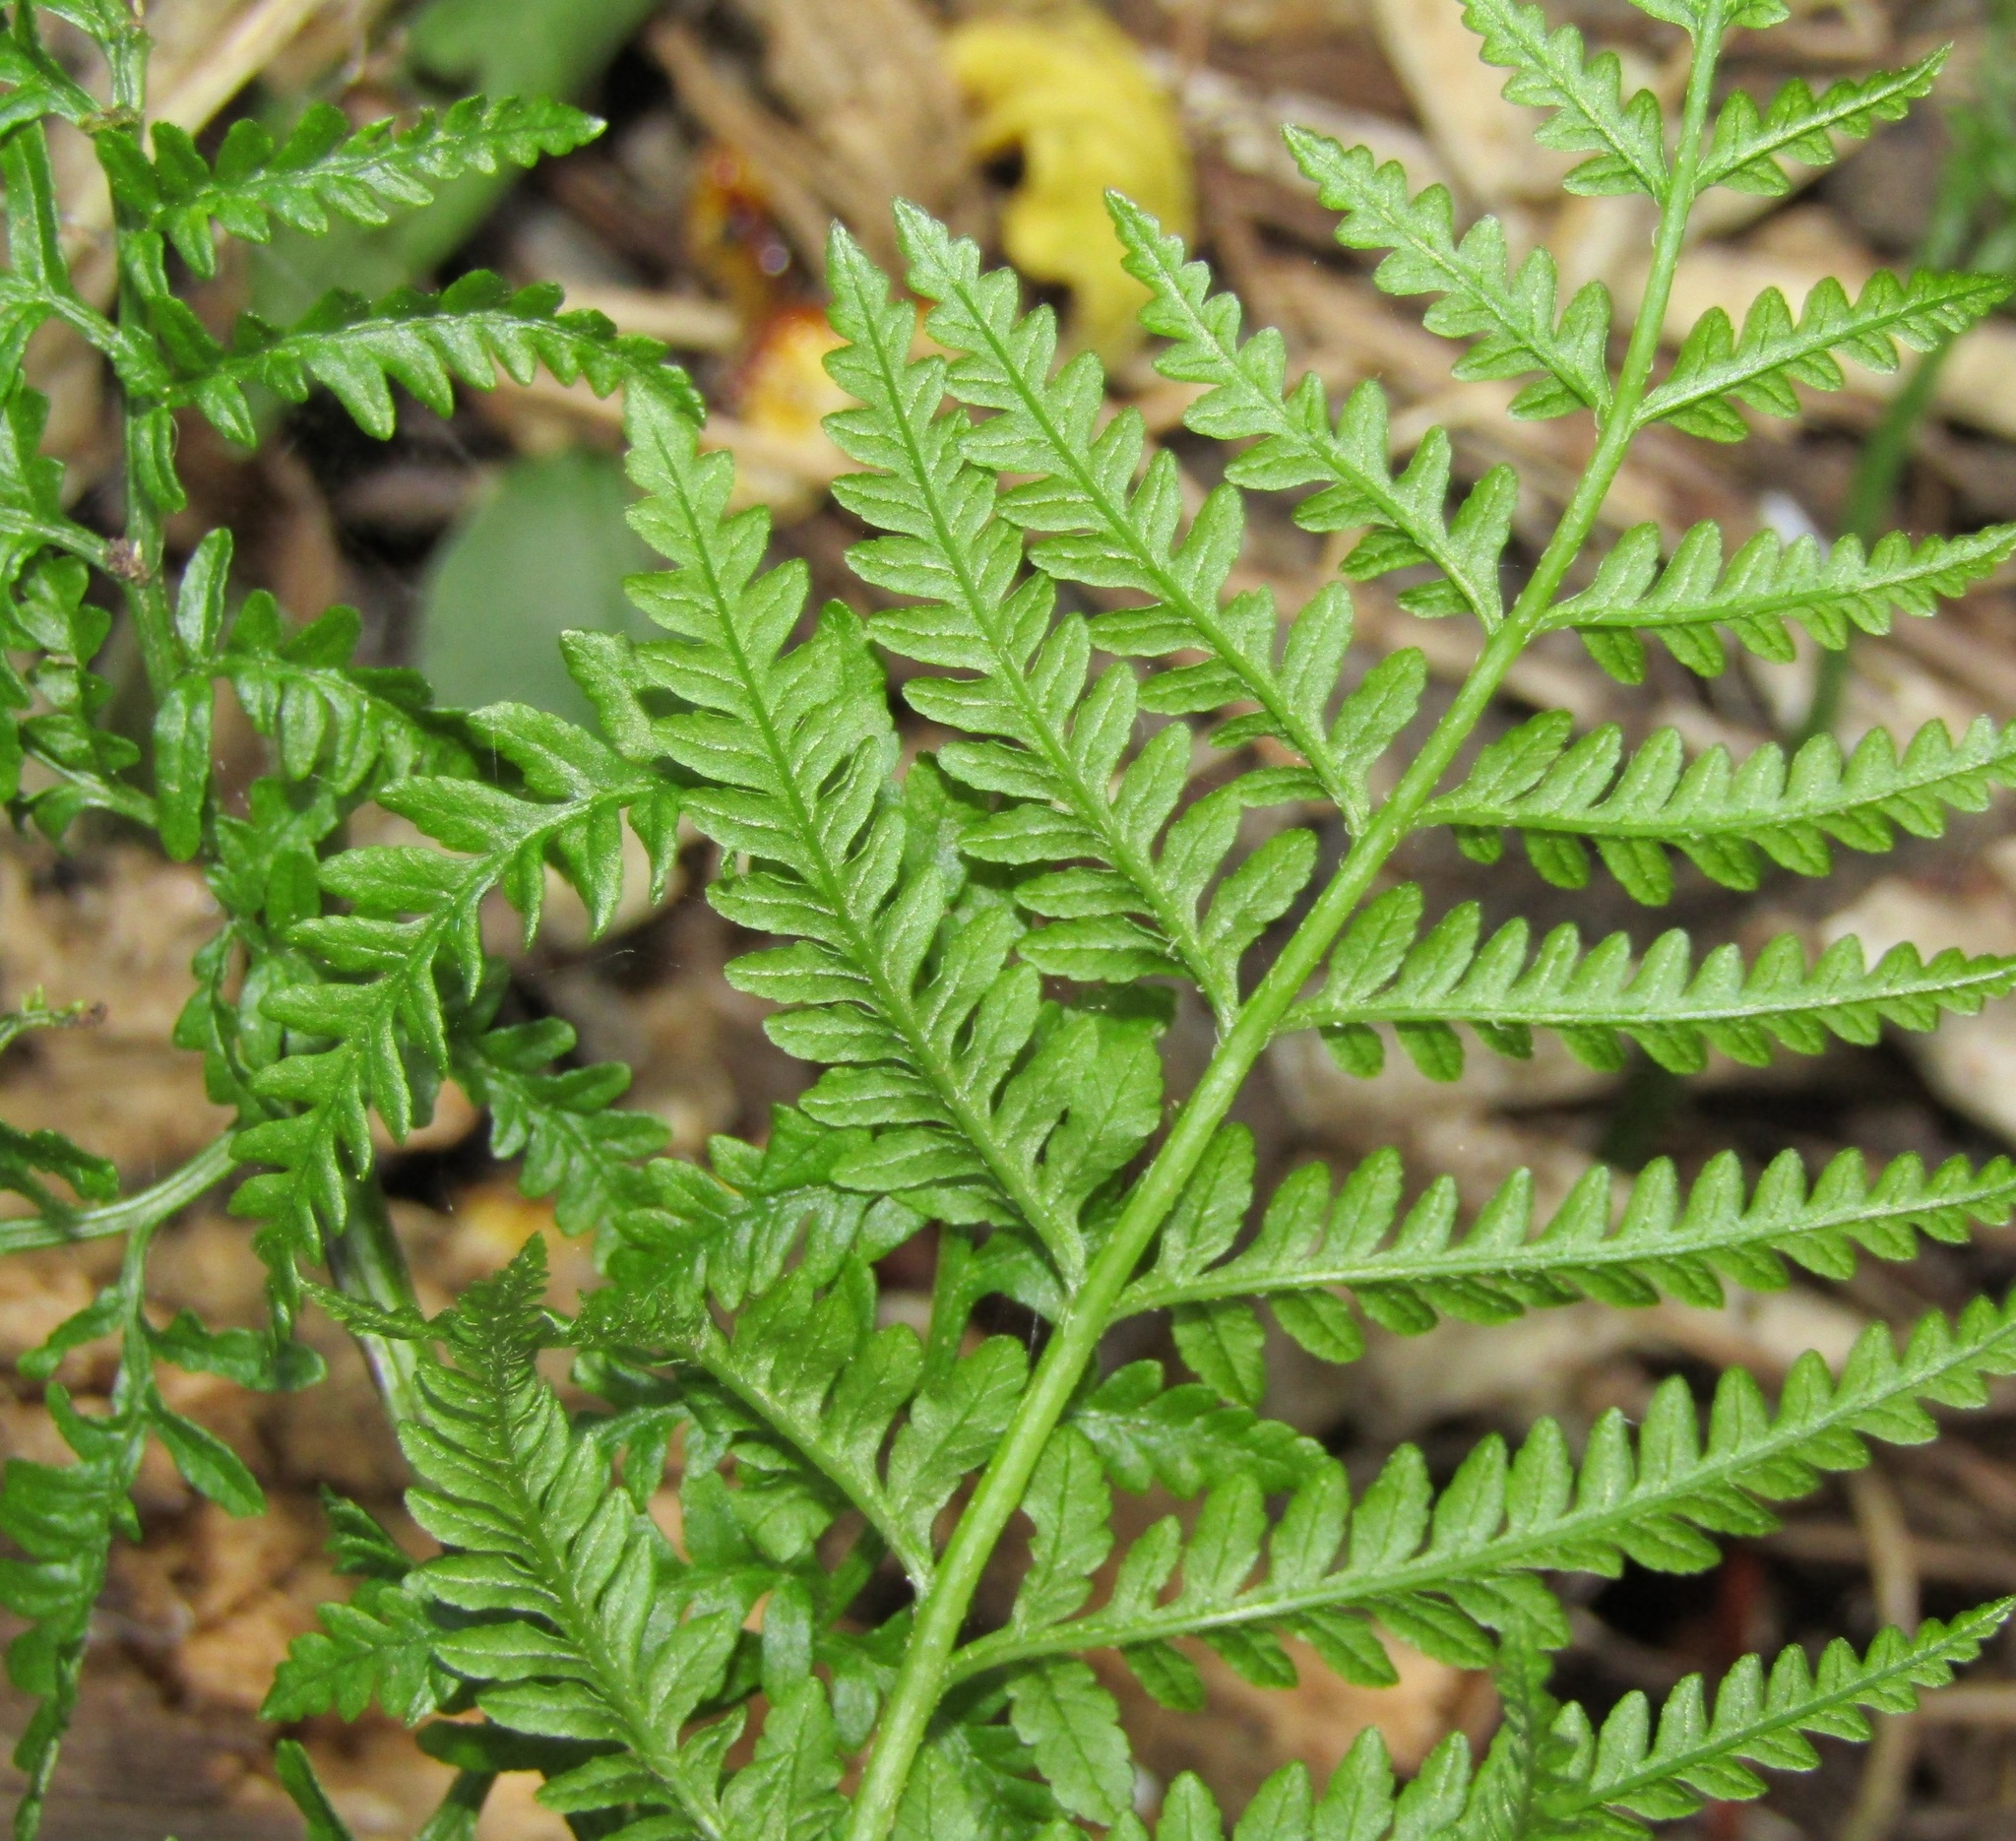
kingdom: Plantae
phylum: Tracheophyta
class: Polypodiopsida
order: Polypodiales
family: Pteridaceae
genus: Pteris
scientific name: Pteris tremula
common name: Australian brake
